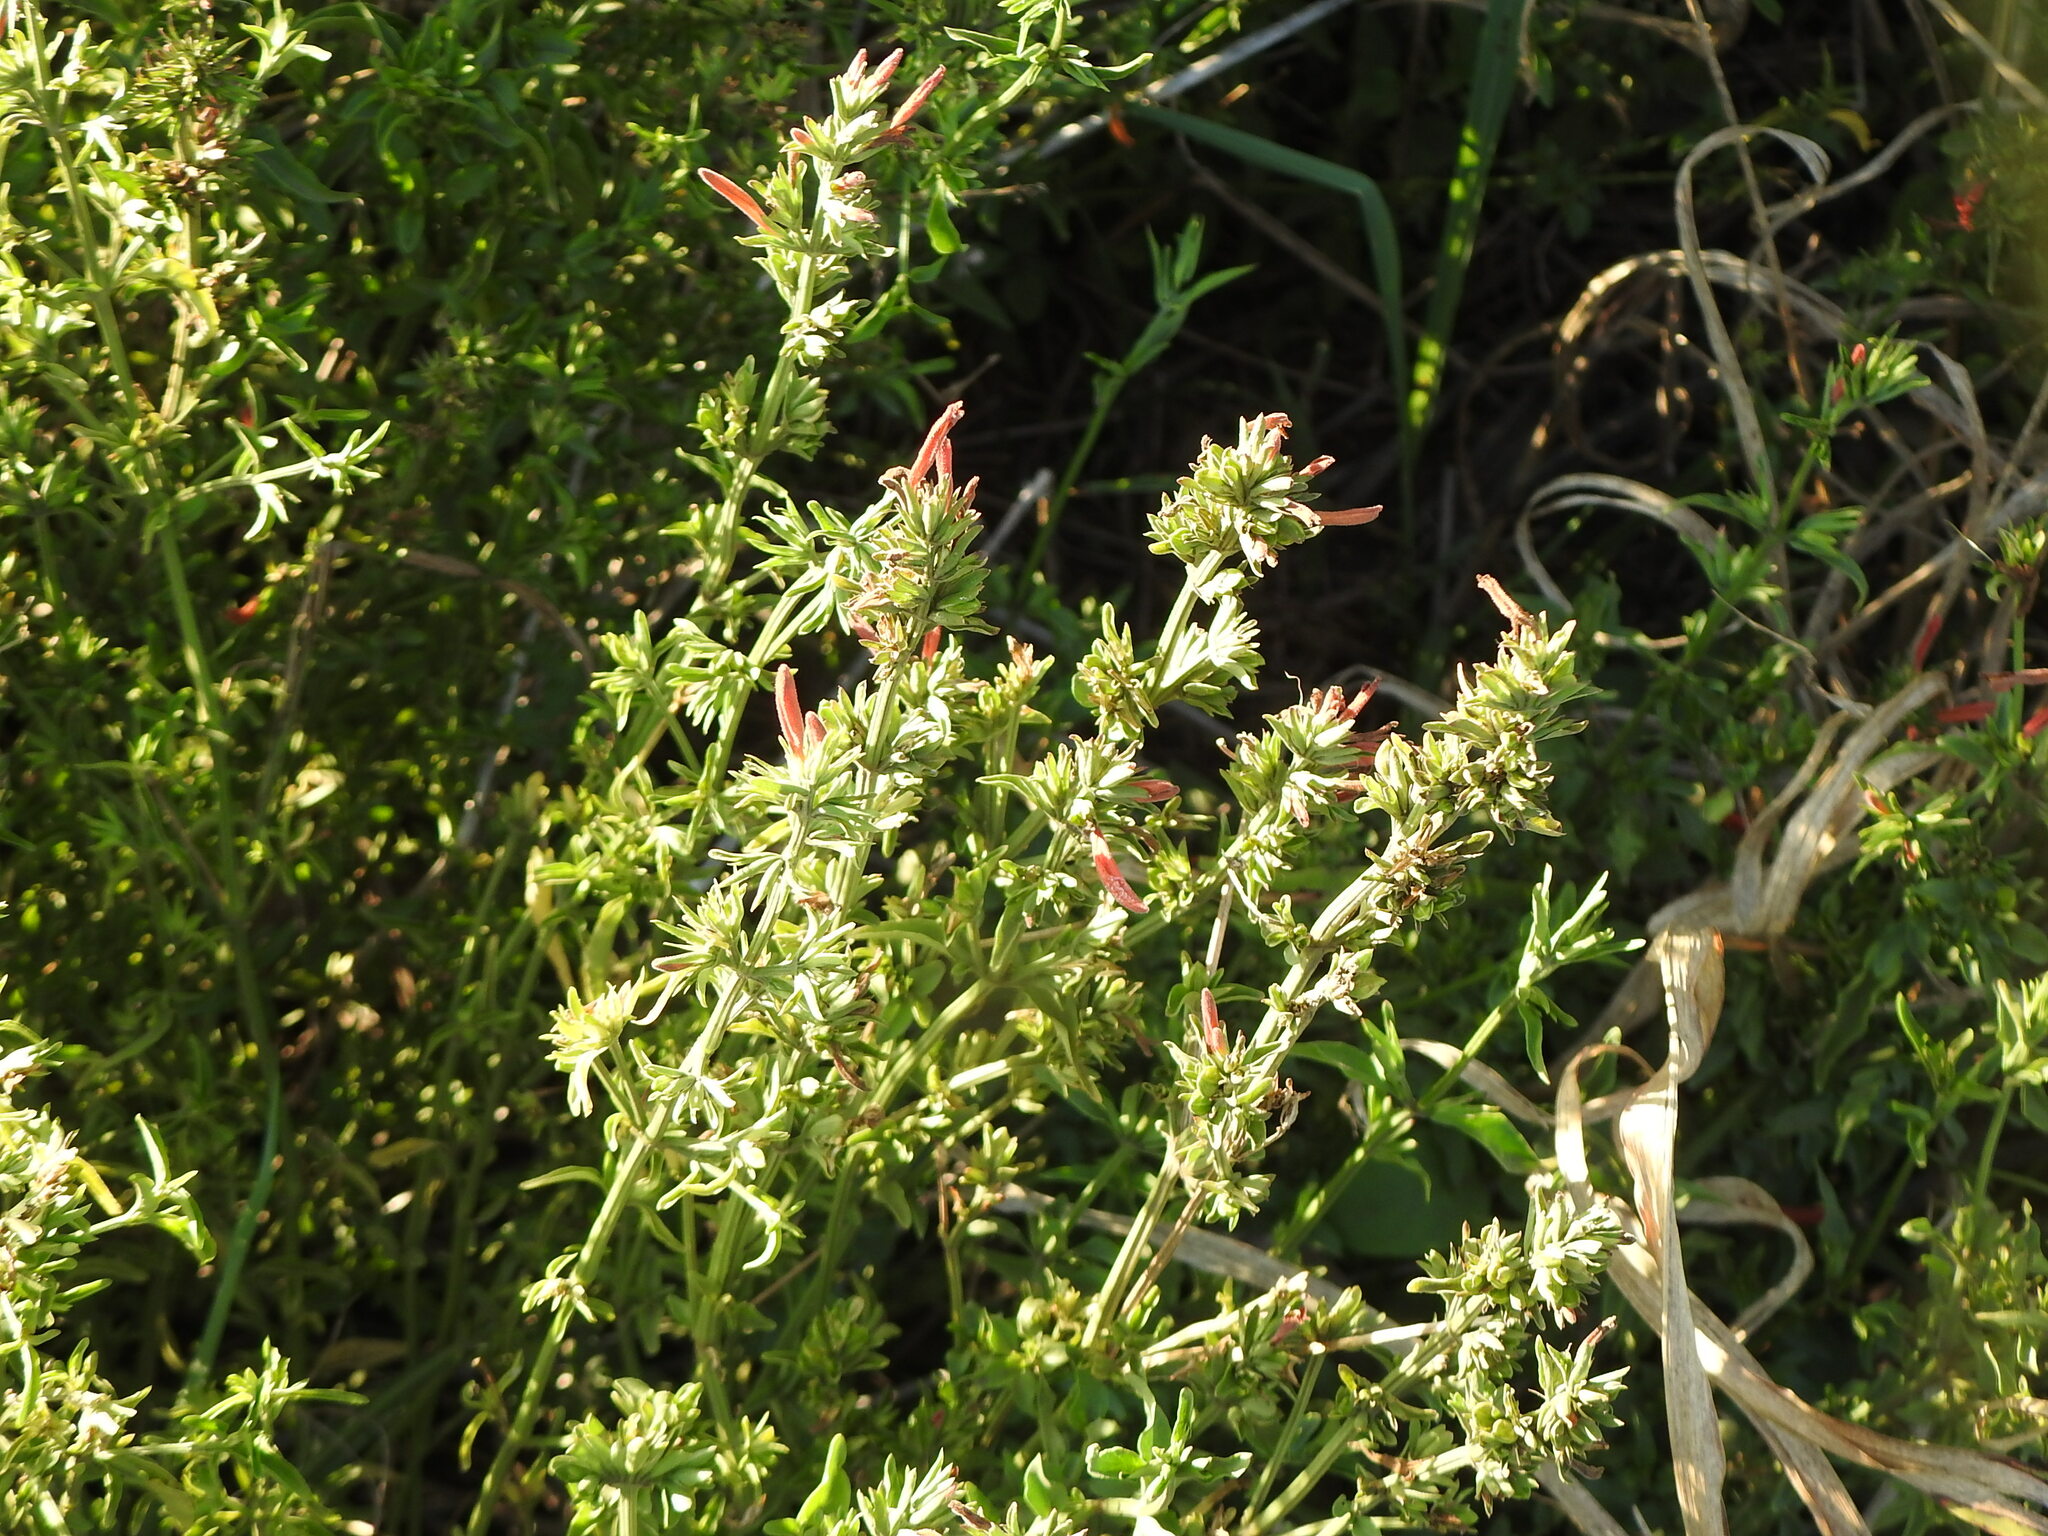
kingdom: Plantae
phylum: Tracheophyta
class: Magnoliopsida
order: Lamiales
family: Acanthaceae
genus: Dicliptera
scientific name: Dicliptera squarrosa
